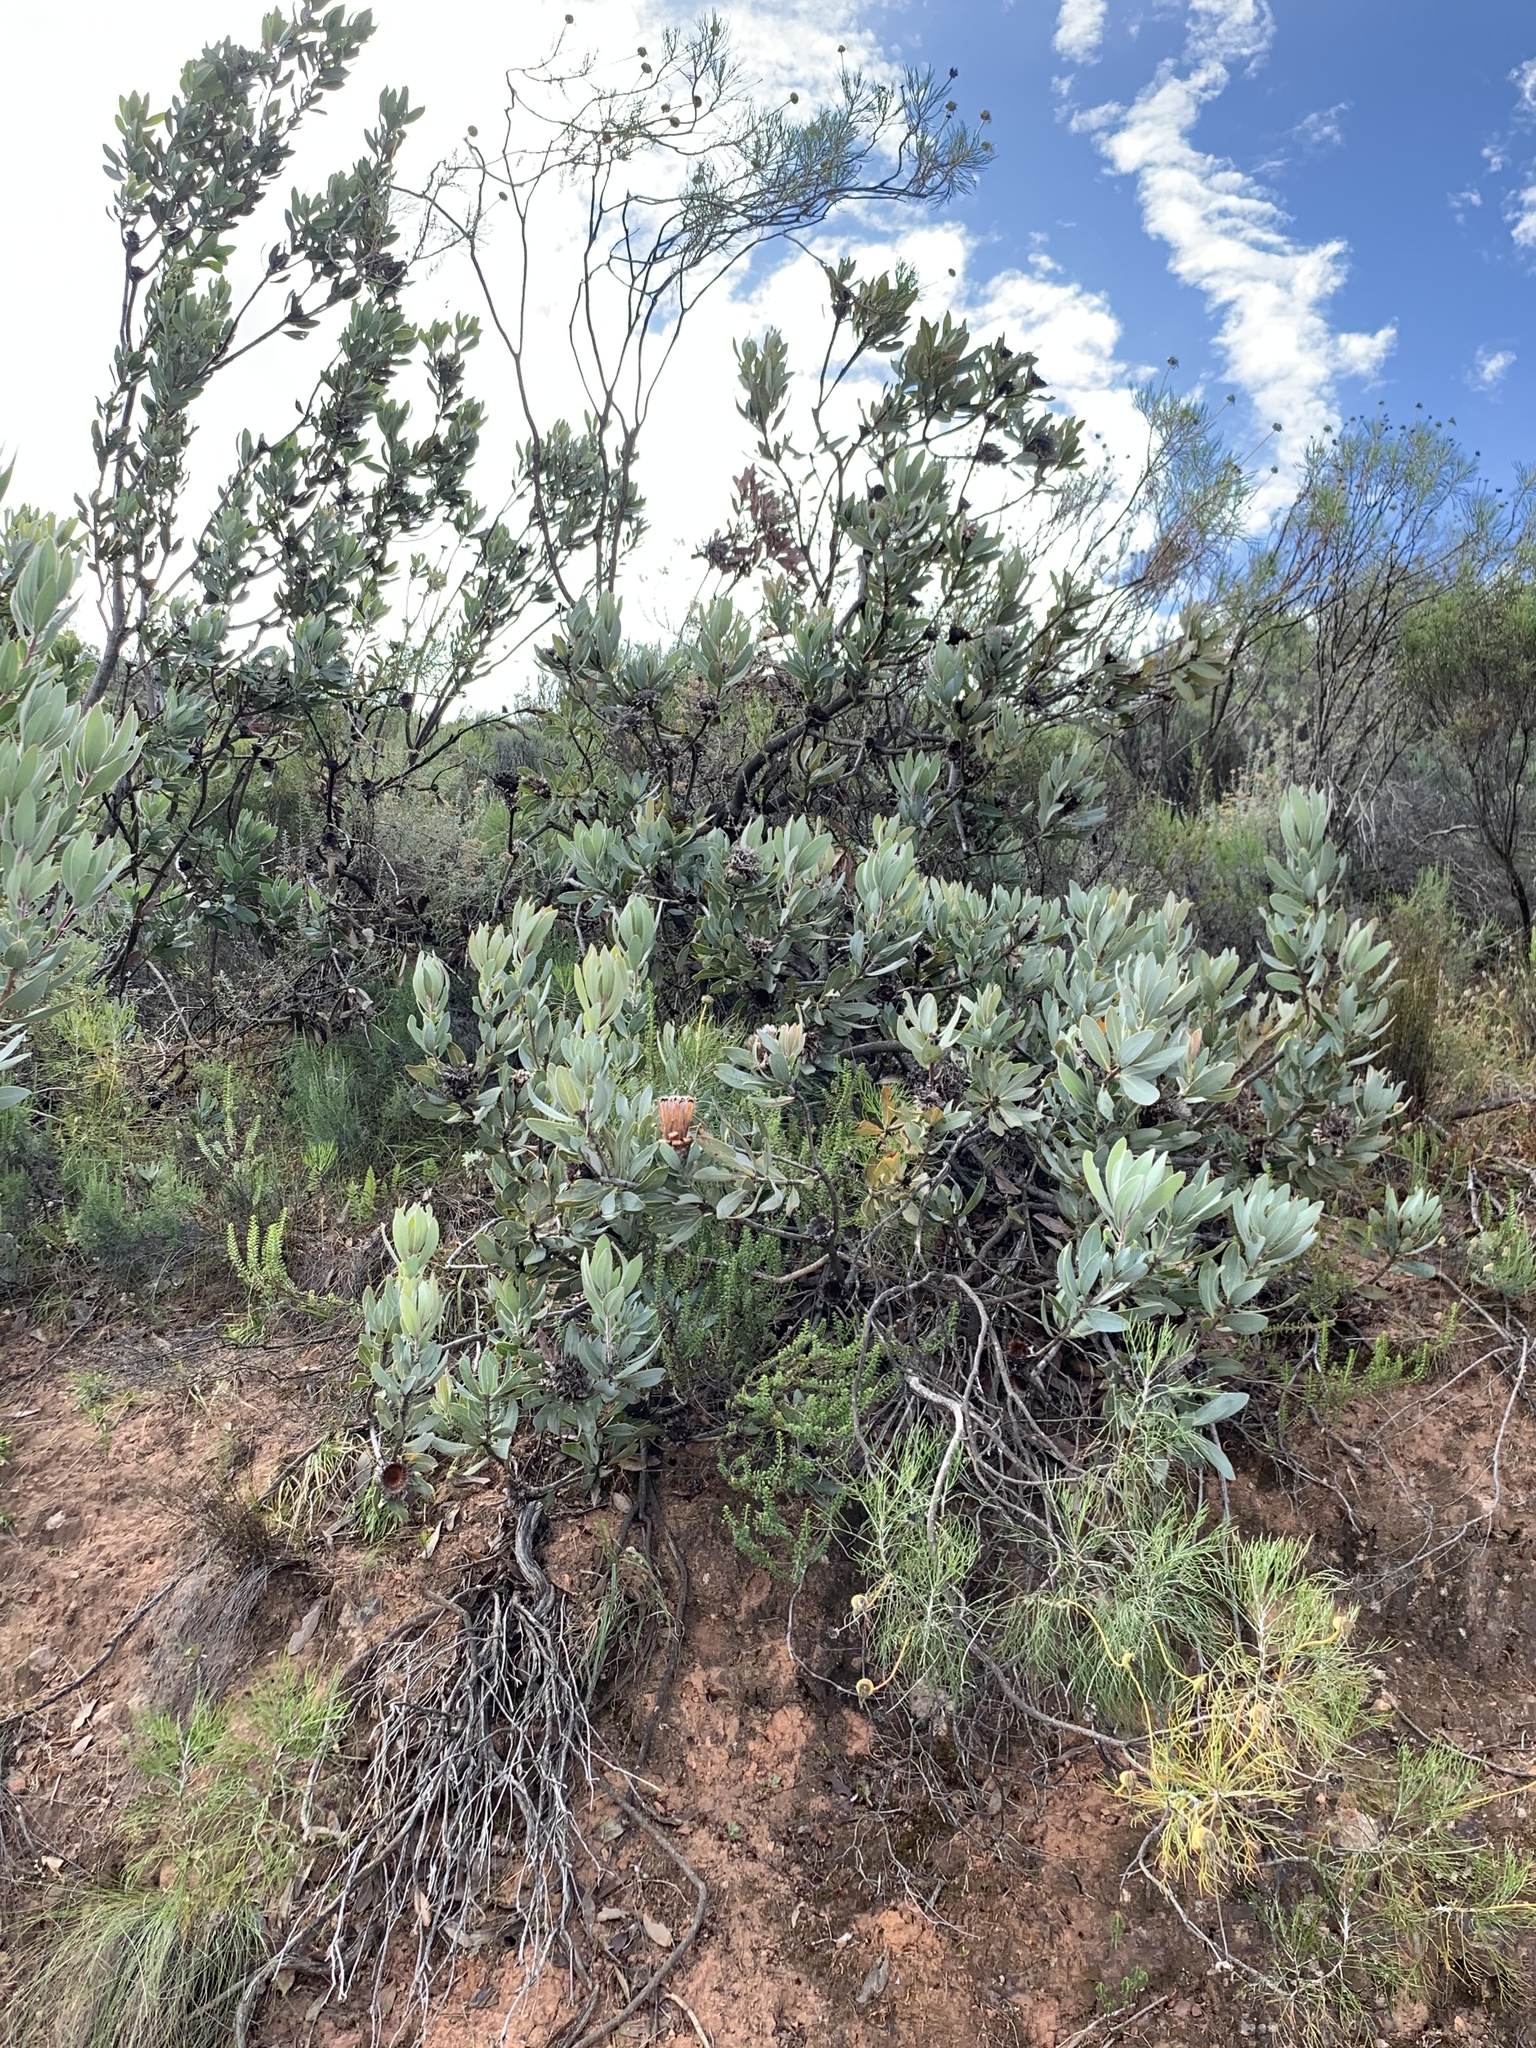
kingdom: Plantae
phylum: Tracheophyta
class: Magnoliopsida
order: Proteales
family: Proteaceae
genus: Protea
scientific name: Protea laurifolia
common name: Grey-leaf sugarbsh
